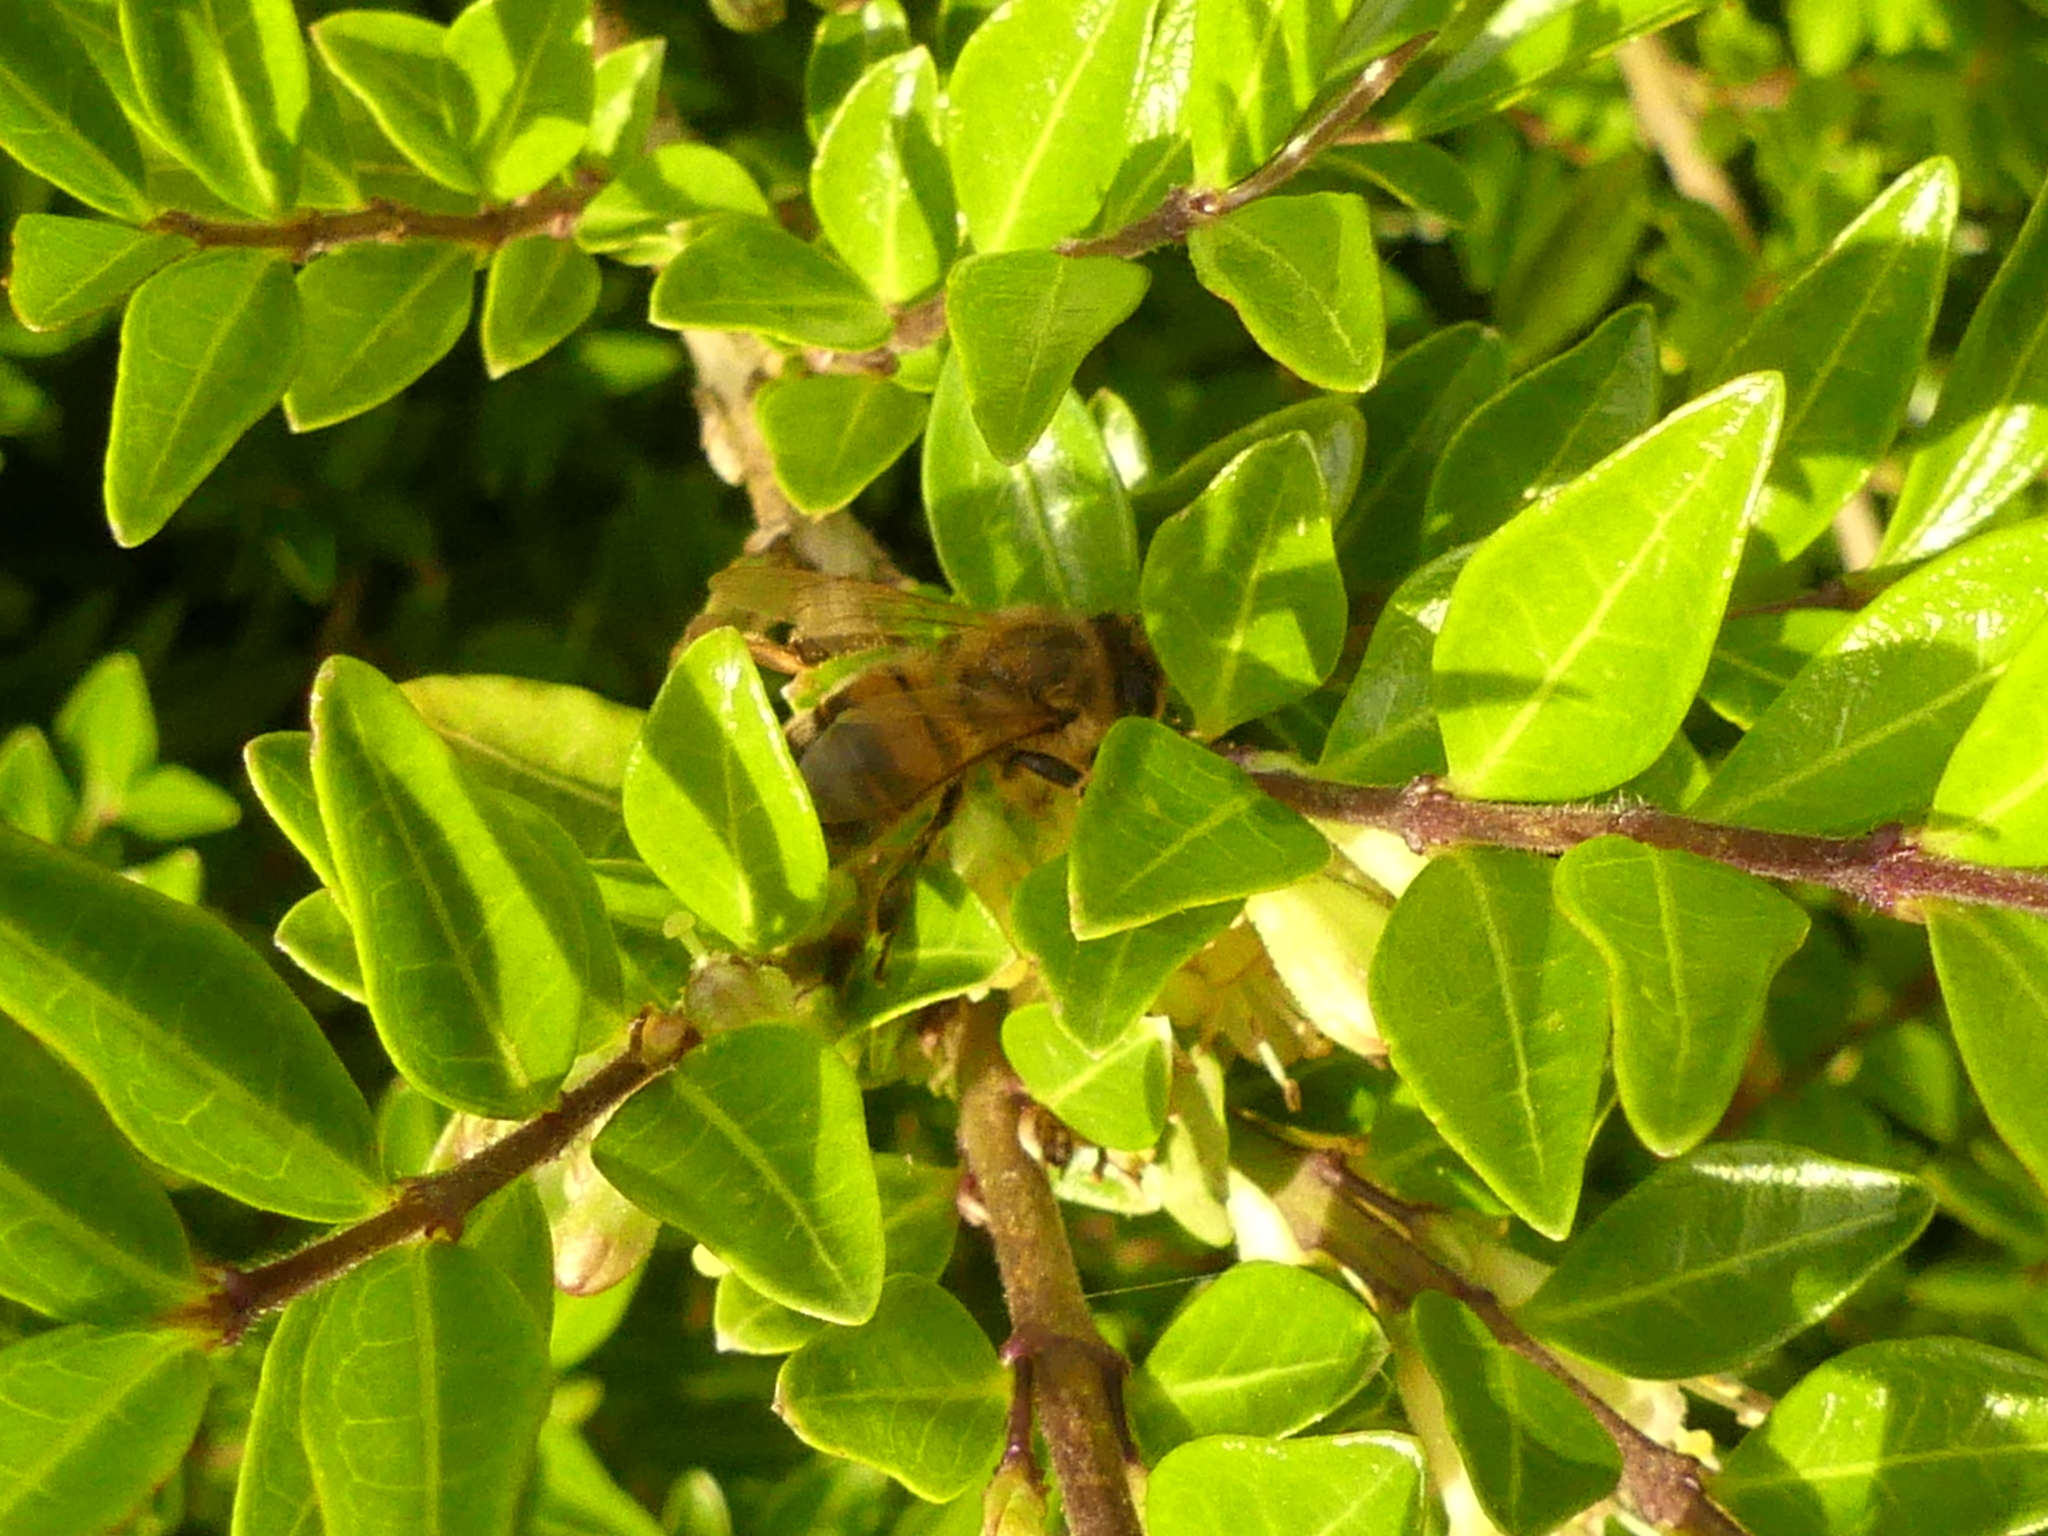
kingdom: Animalia
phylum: Arthropoda
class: Insecta
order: Hymenoptera
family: Apidae
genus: Apis
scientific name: Apis mellifera
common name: Honey bee
